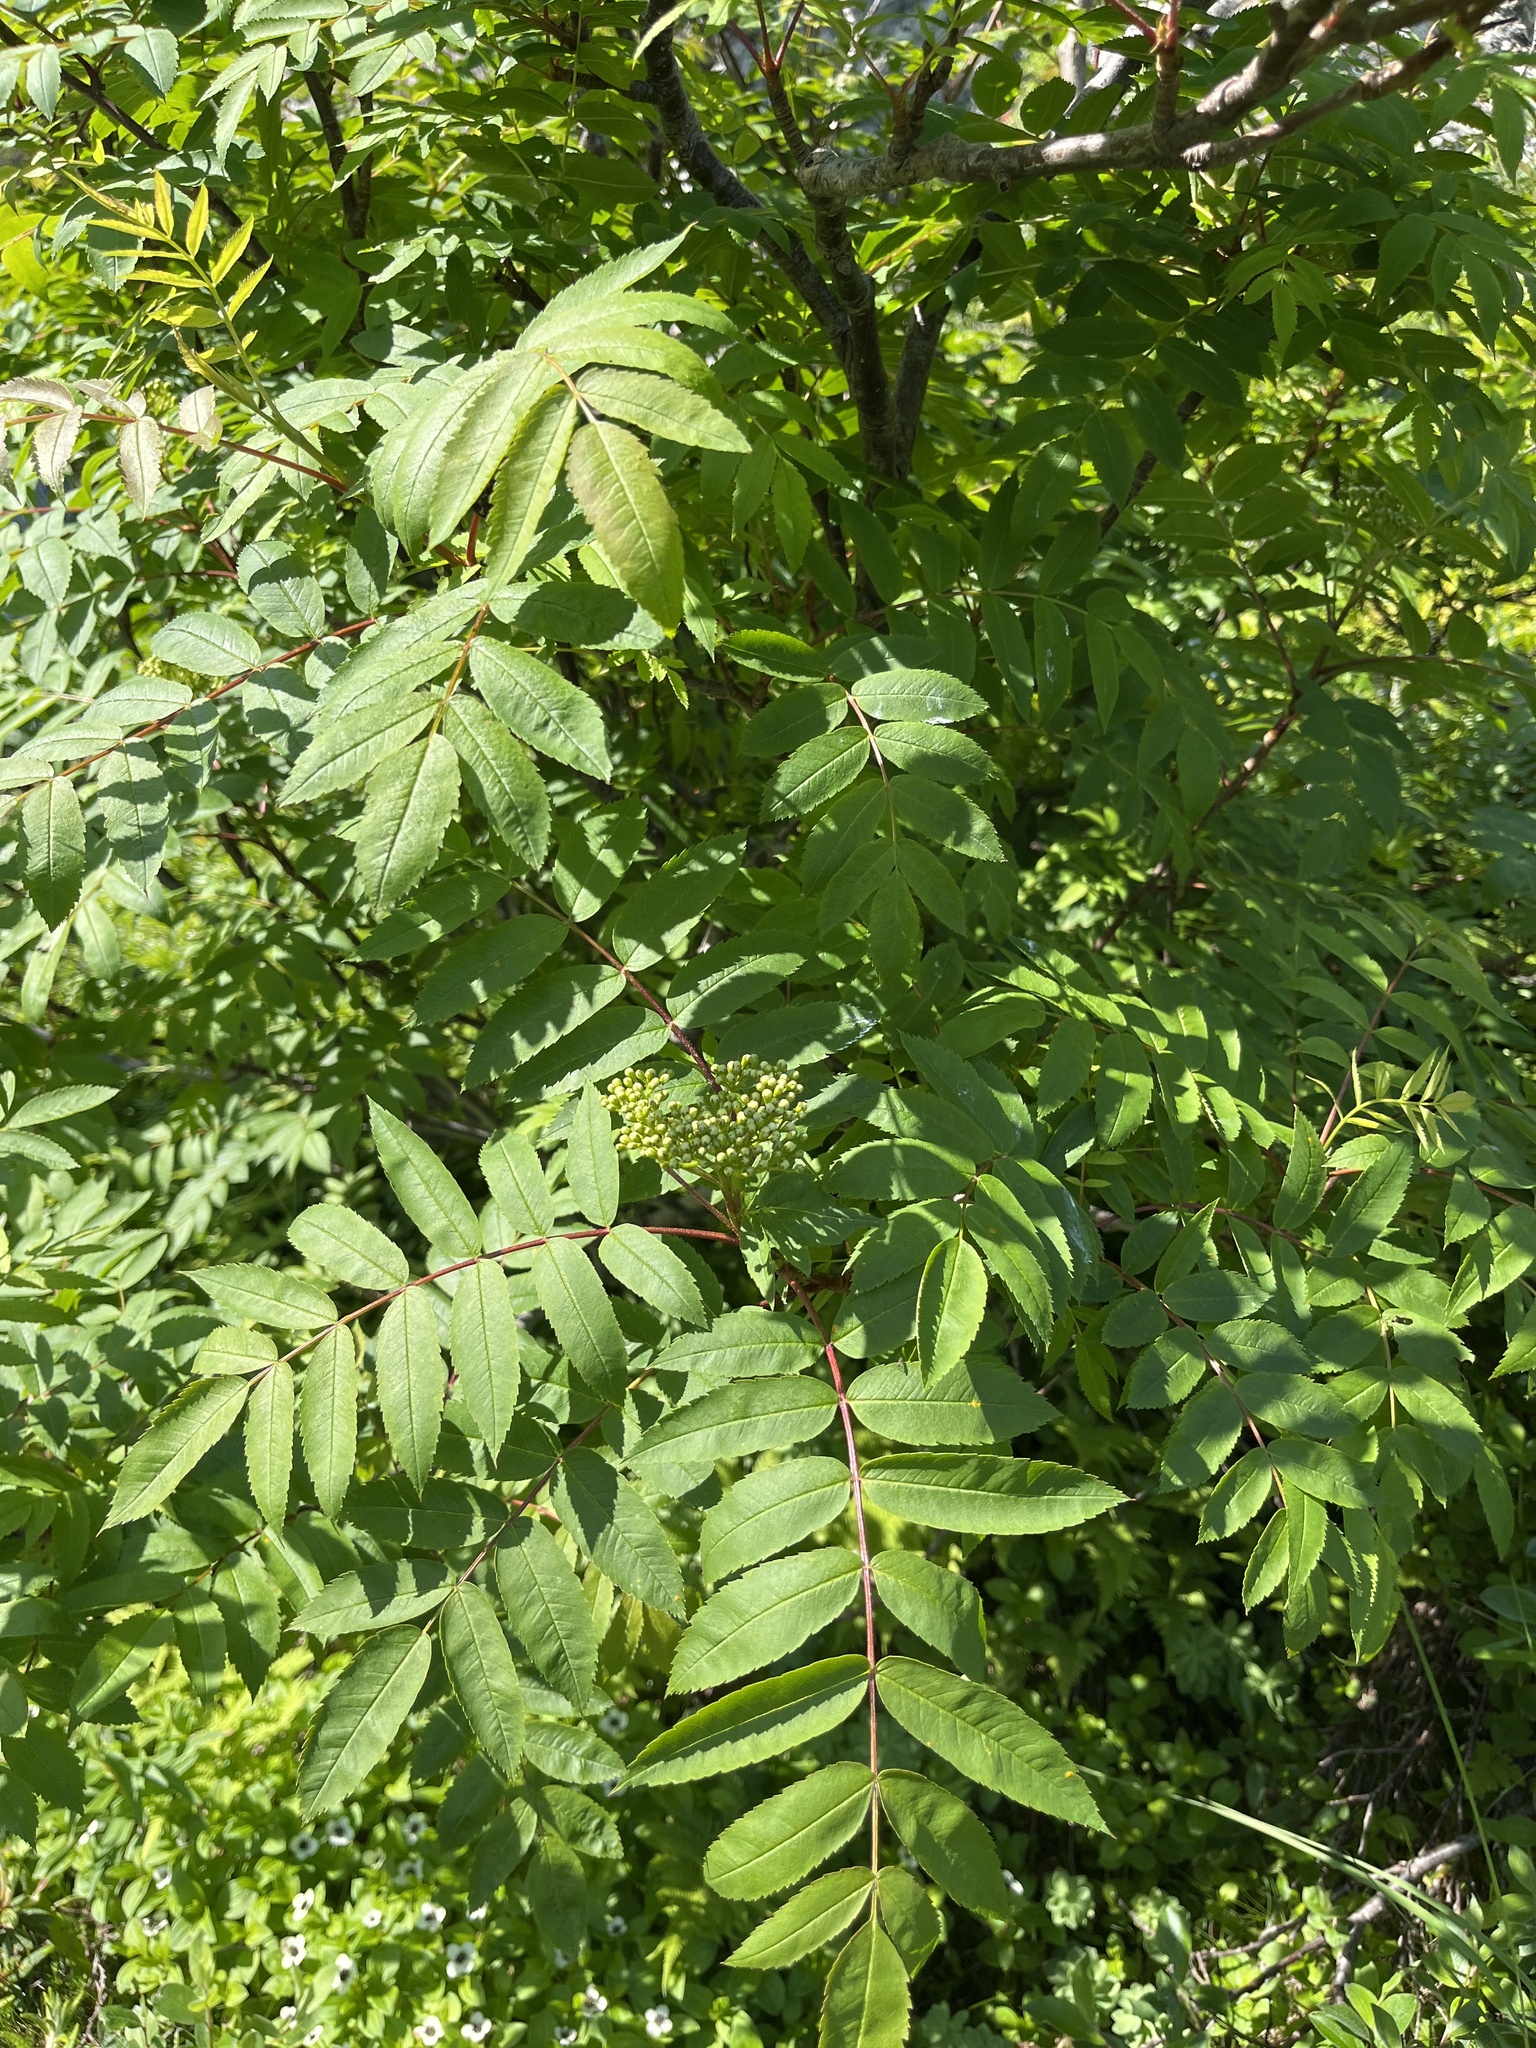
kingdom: Plantae
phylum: Tracheophyta
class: Magnoliopsida
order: Rosales
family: Rosaceae
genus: Sorbus
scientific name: Sorbus decora
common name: Northern mountain-ash
